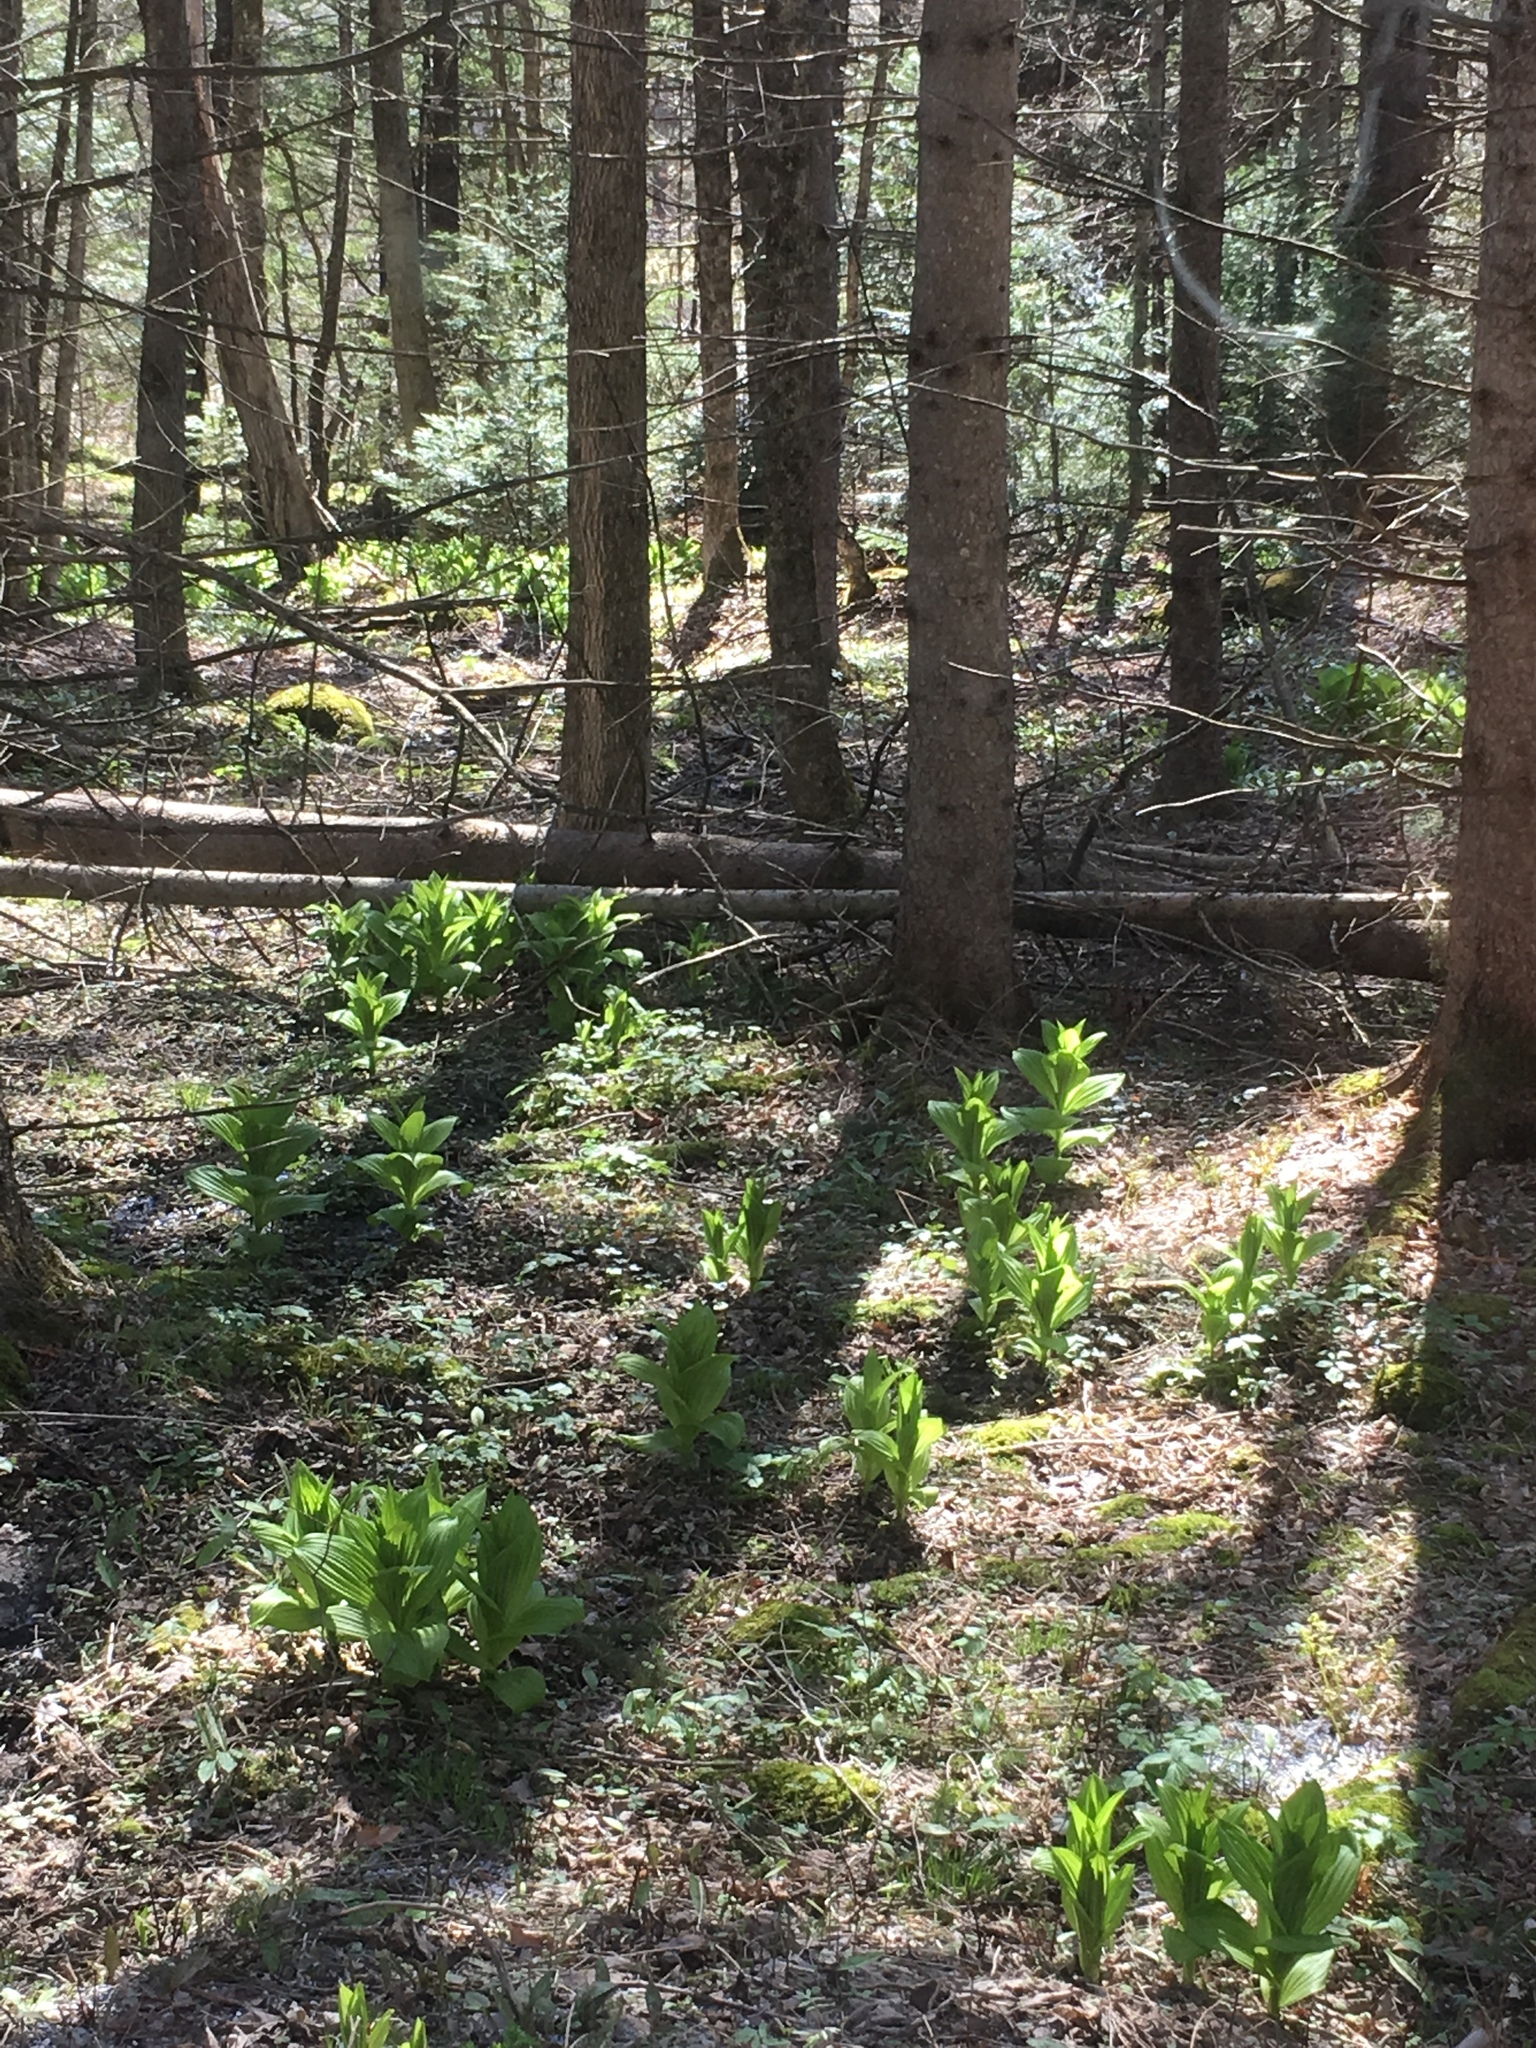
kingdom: Plantae
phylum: Tracheophyta
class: Liliopsida
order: Liliales
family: Melanthiaceae
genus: Veratrum
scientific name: Veratrum viride
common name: American false hellebore
